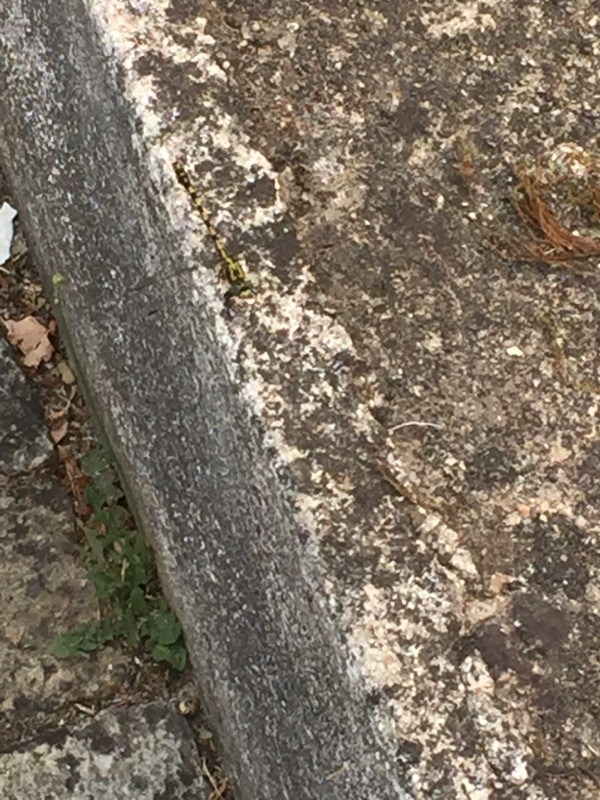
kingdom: Animalia
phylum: Arthropoda
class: Insecta
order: Odonata
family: Gomphidae
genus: Onychogomphus
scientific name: Onychogomphus uncatus
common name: Large pincertail
